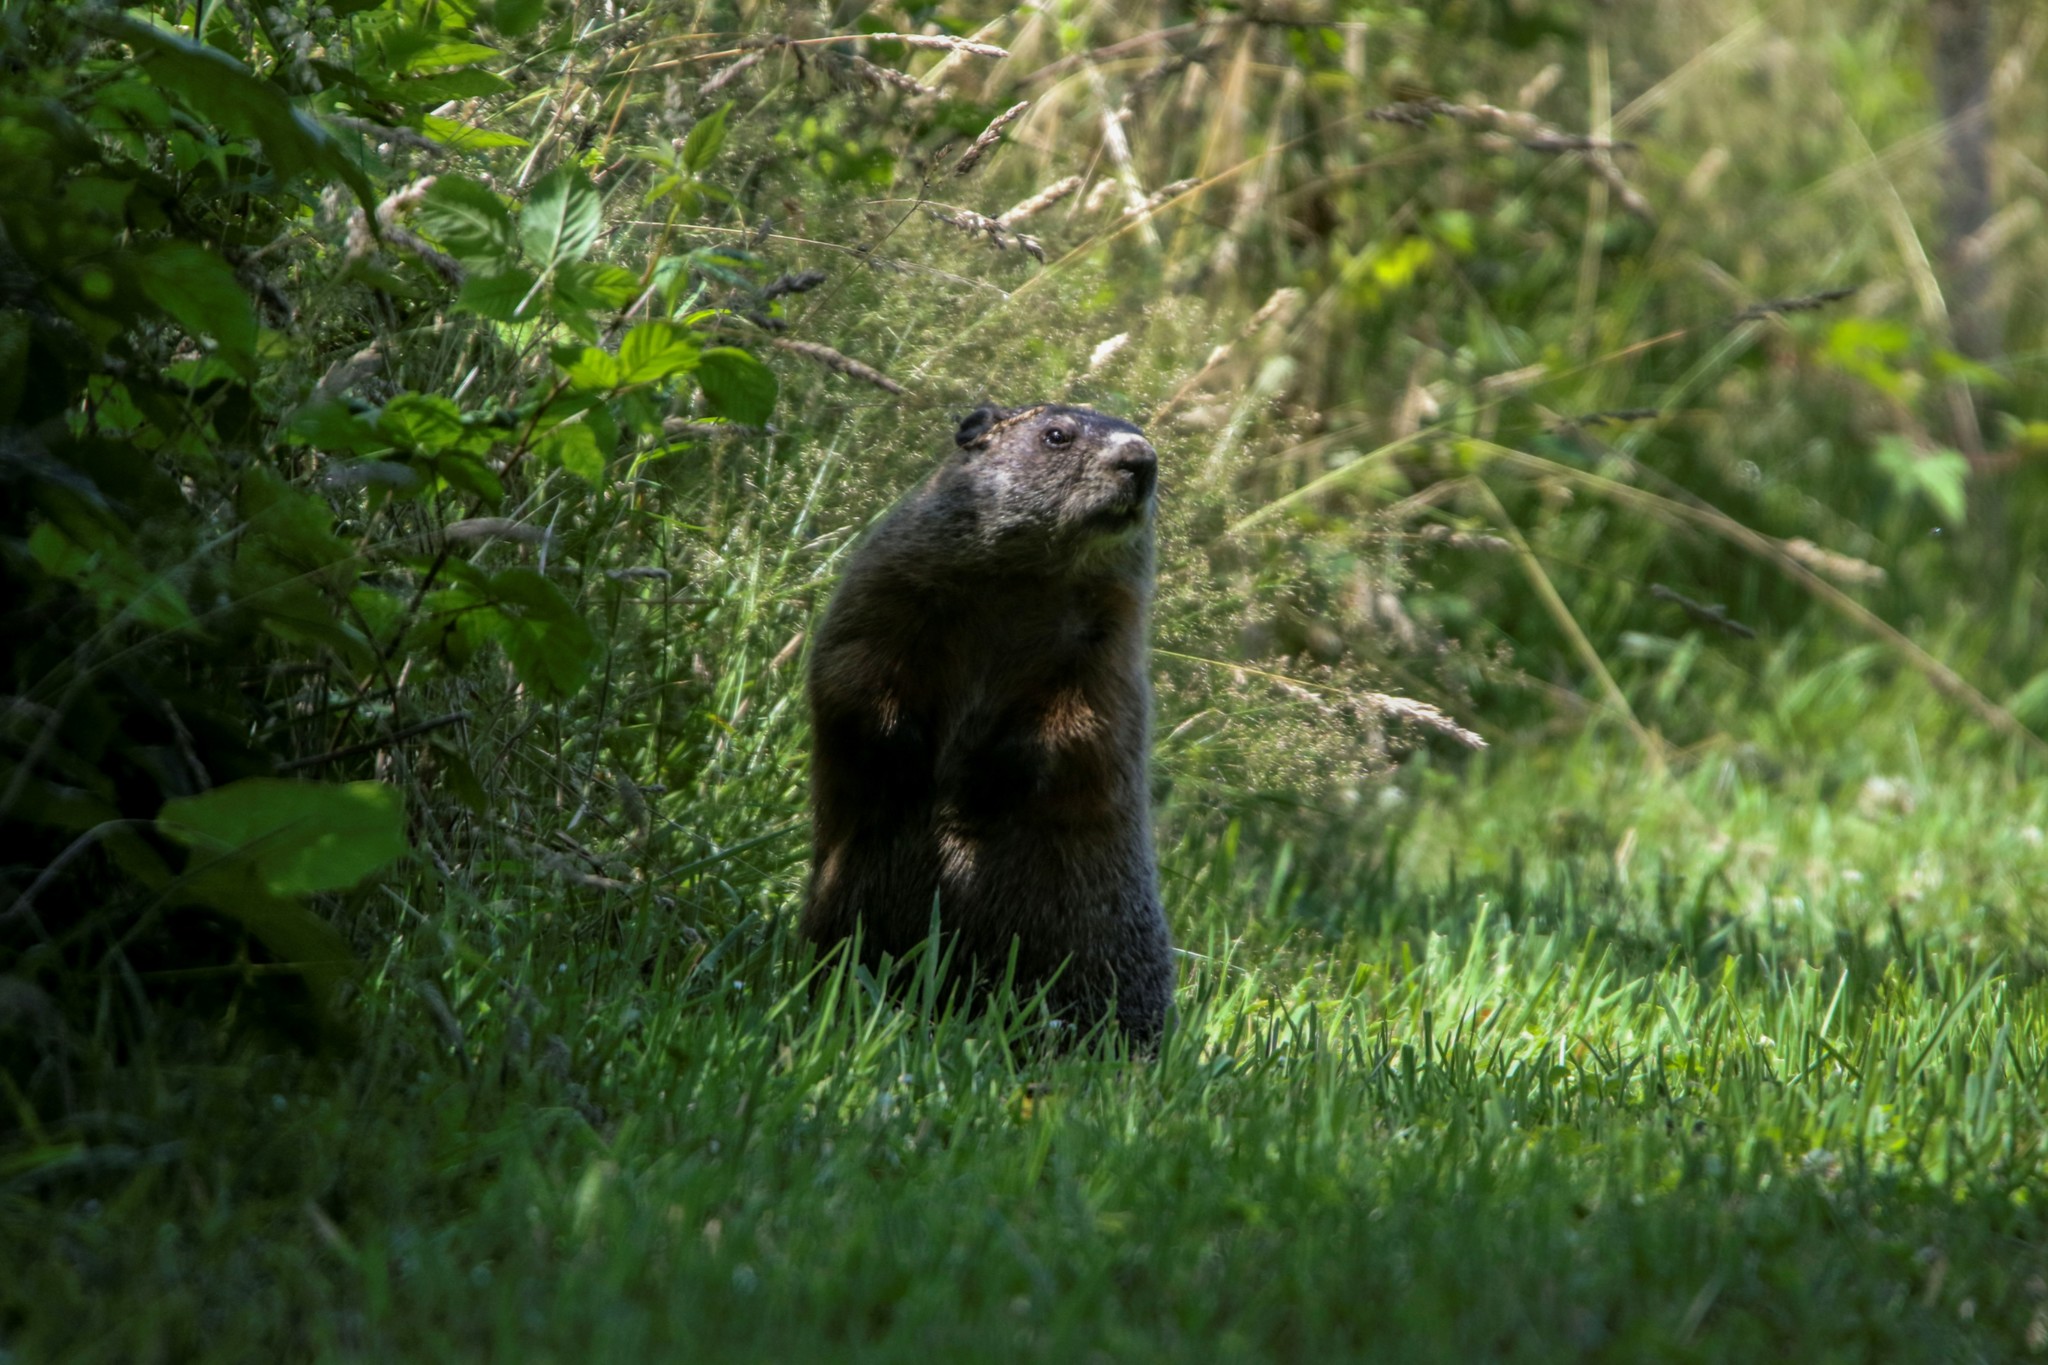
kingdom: Animalia
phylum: Chordata
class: Mammalia
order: Rodentia
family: Sciuridae
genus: Marmota
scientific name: Marmota monax
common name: Groundhog
